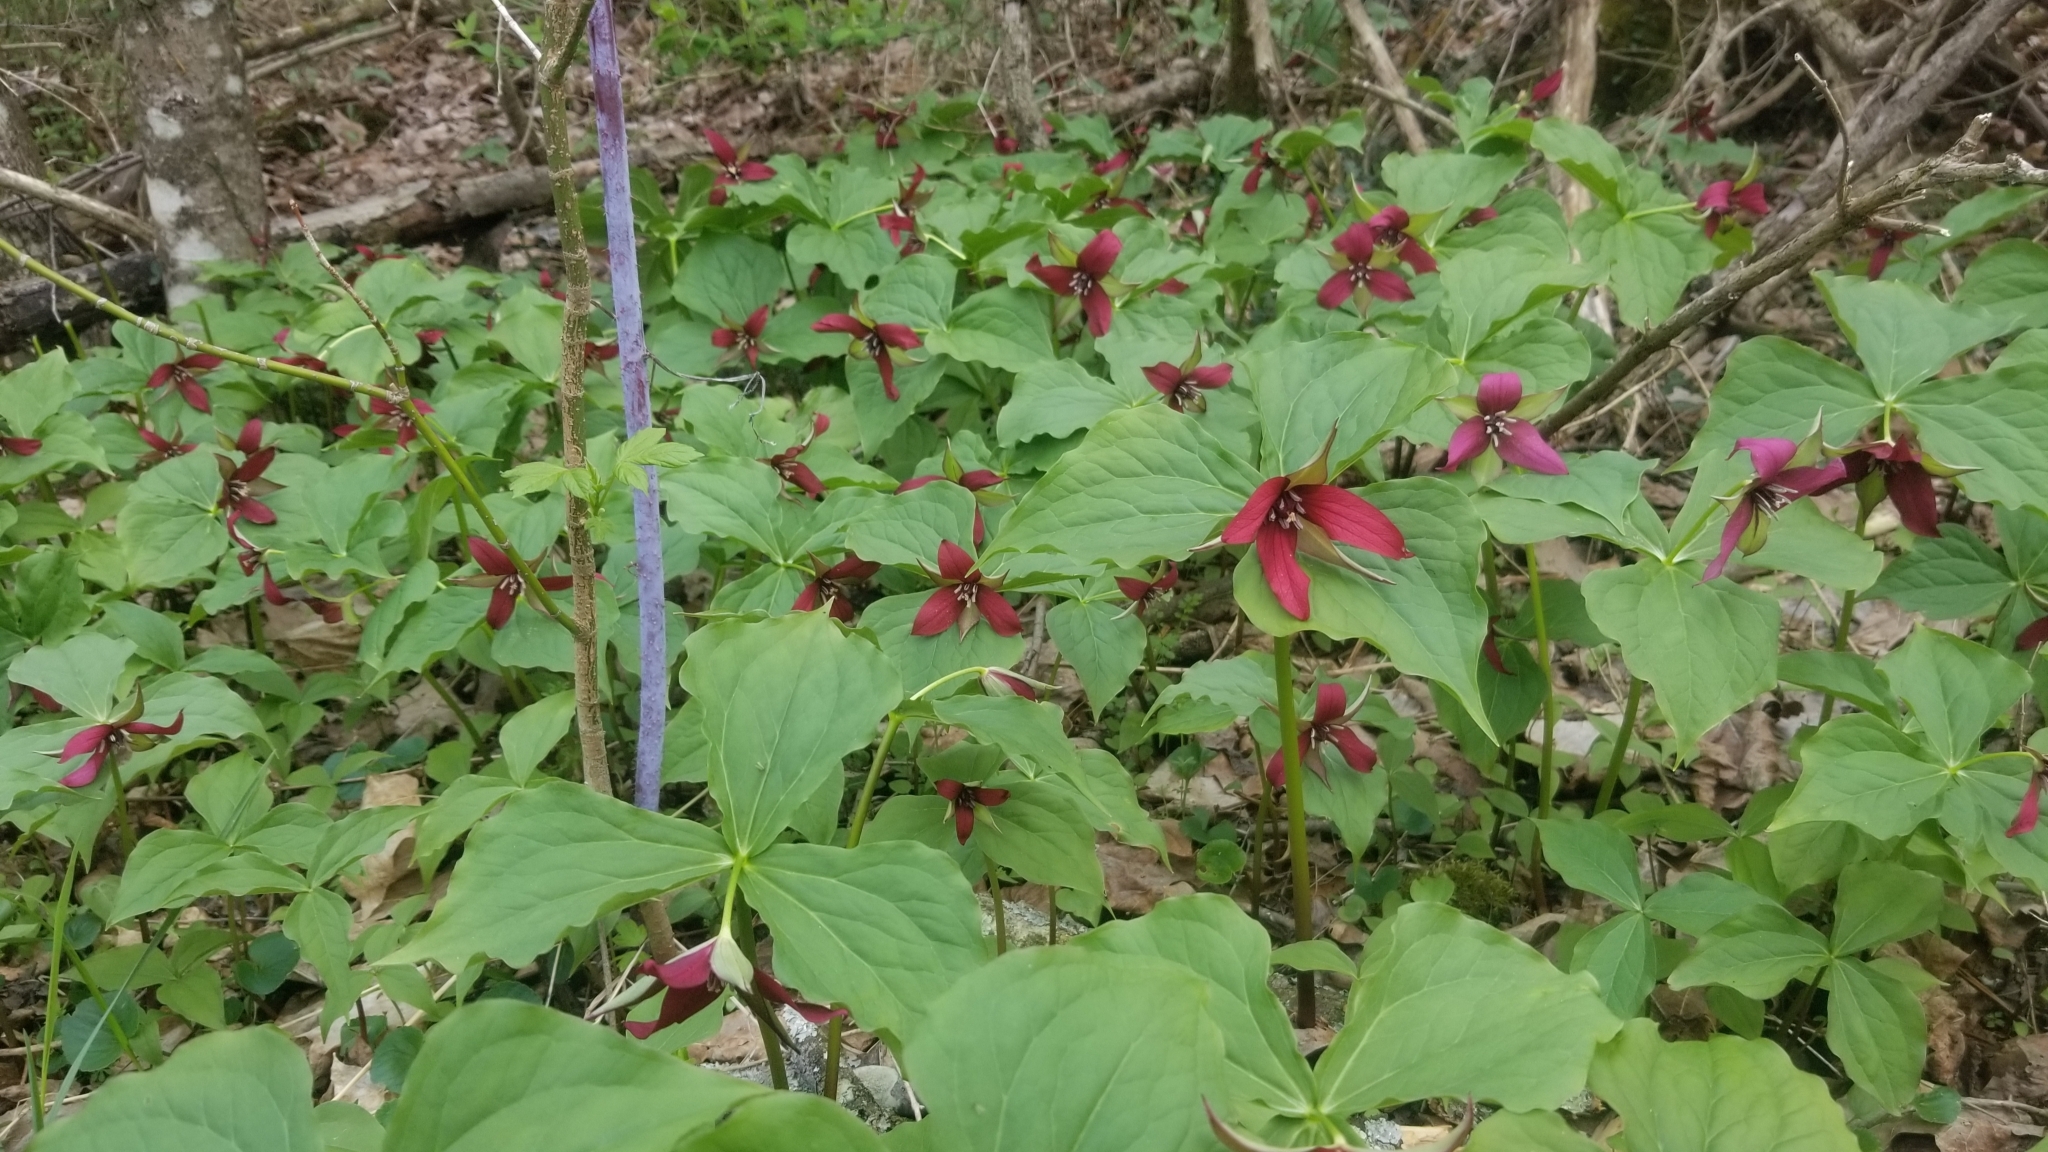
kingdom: Plantae
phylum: Tracheophyta
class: Liliopsida
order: Liliales
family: Melanthiaceae
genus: Trillium
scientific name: Trillium erectum
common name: Purple trillium
